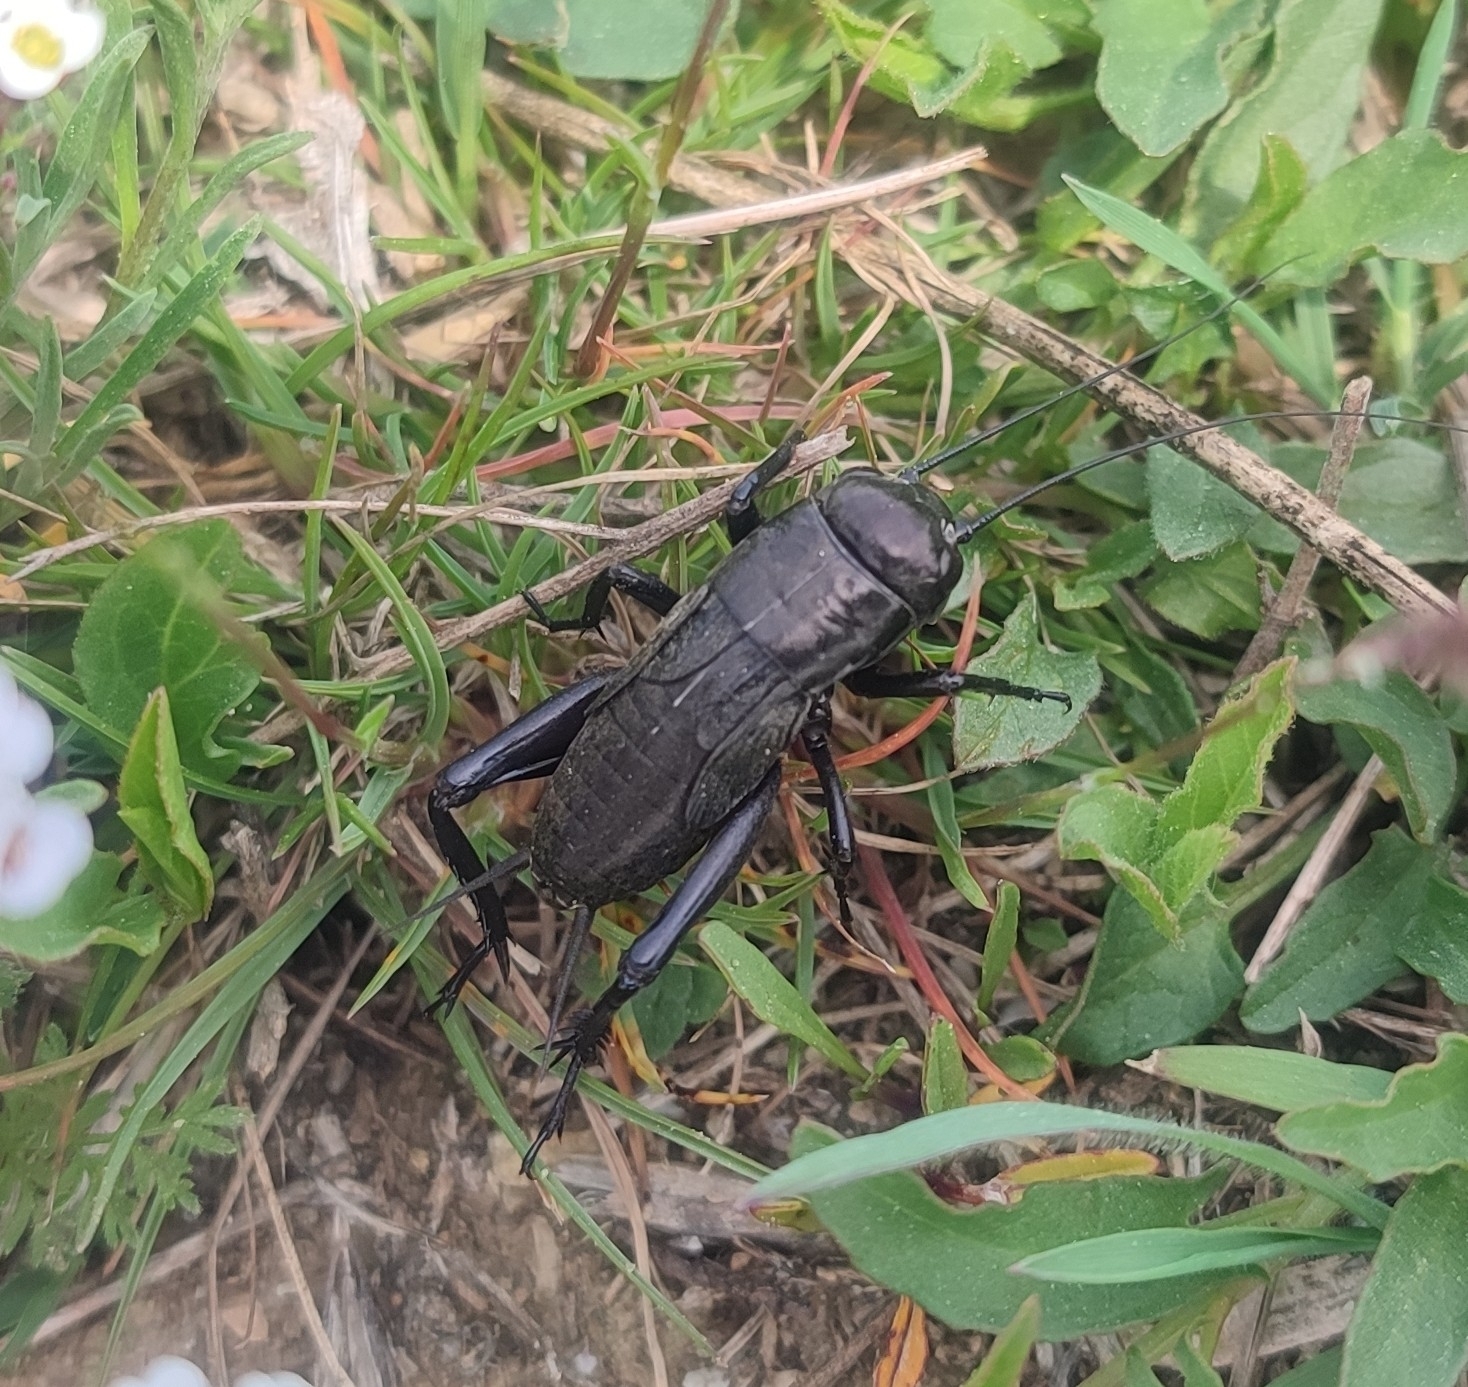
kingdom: Animalia
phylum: Arthropoda
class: Insecta
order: Orthoptera
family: Gryllidae
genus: Gryllus
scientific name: Gryllus bimaculatus
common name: Two-spotted cricket
